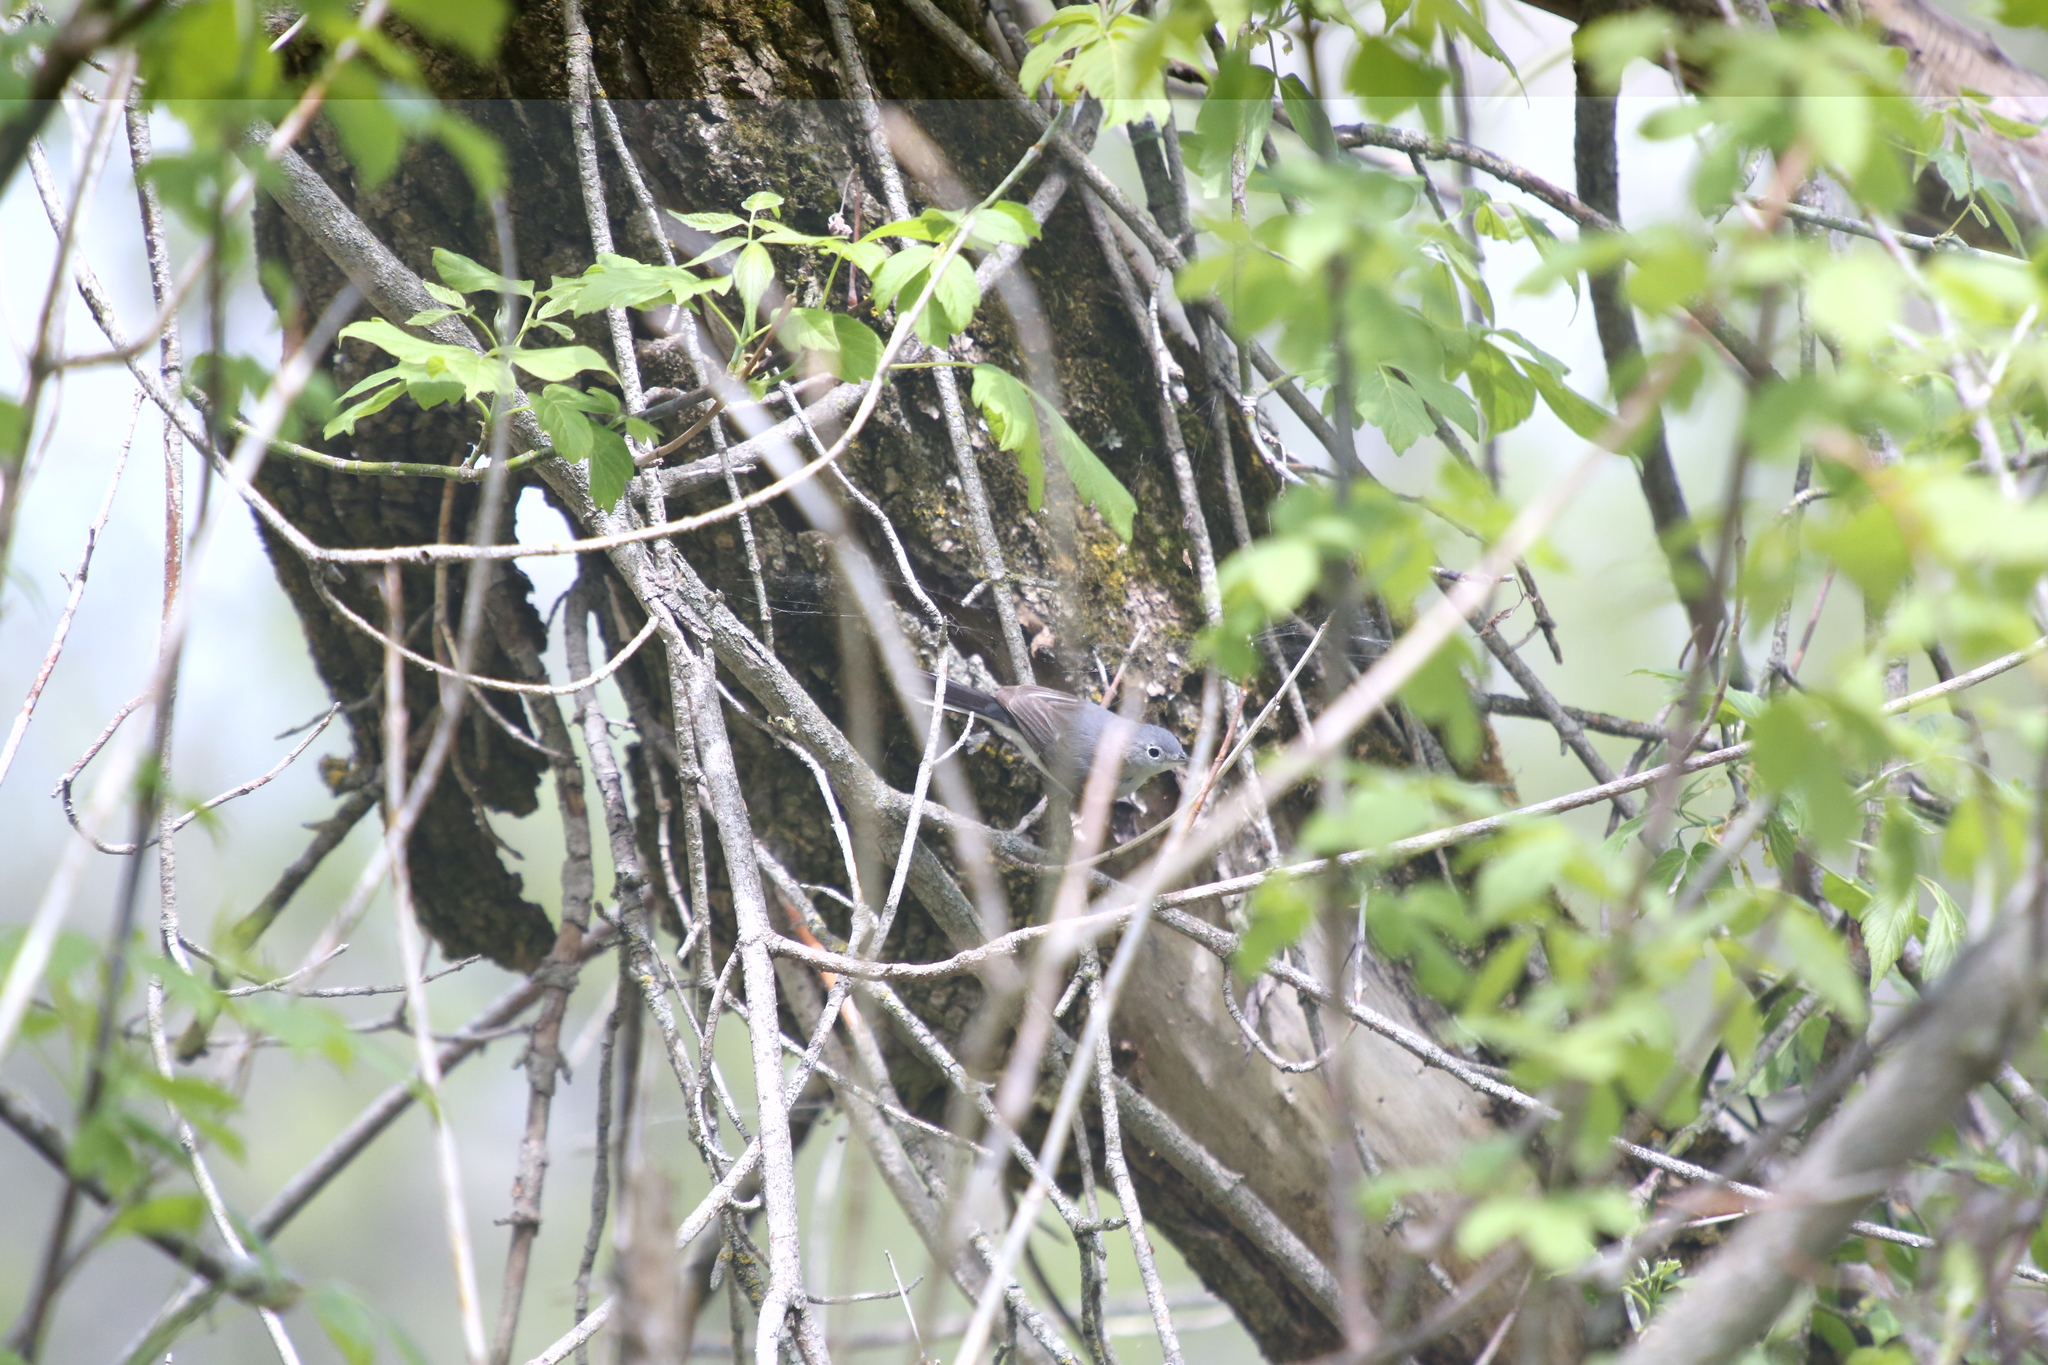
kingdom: Animalia
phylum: Chordata
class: Aves
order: Passeriformes
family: Polioptilidae
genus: Polioptila
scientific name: Polioptila caerulea
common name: Blue-gray gnatcatcher
